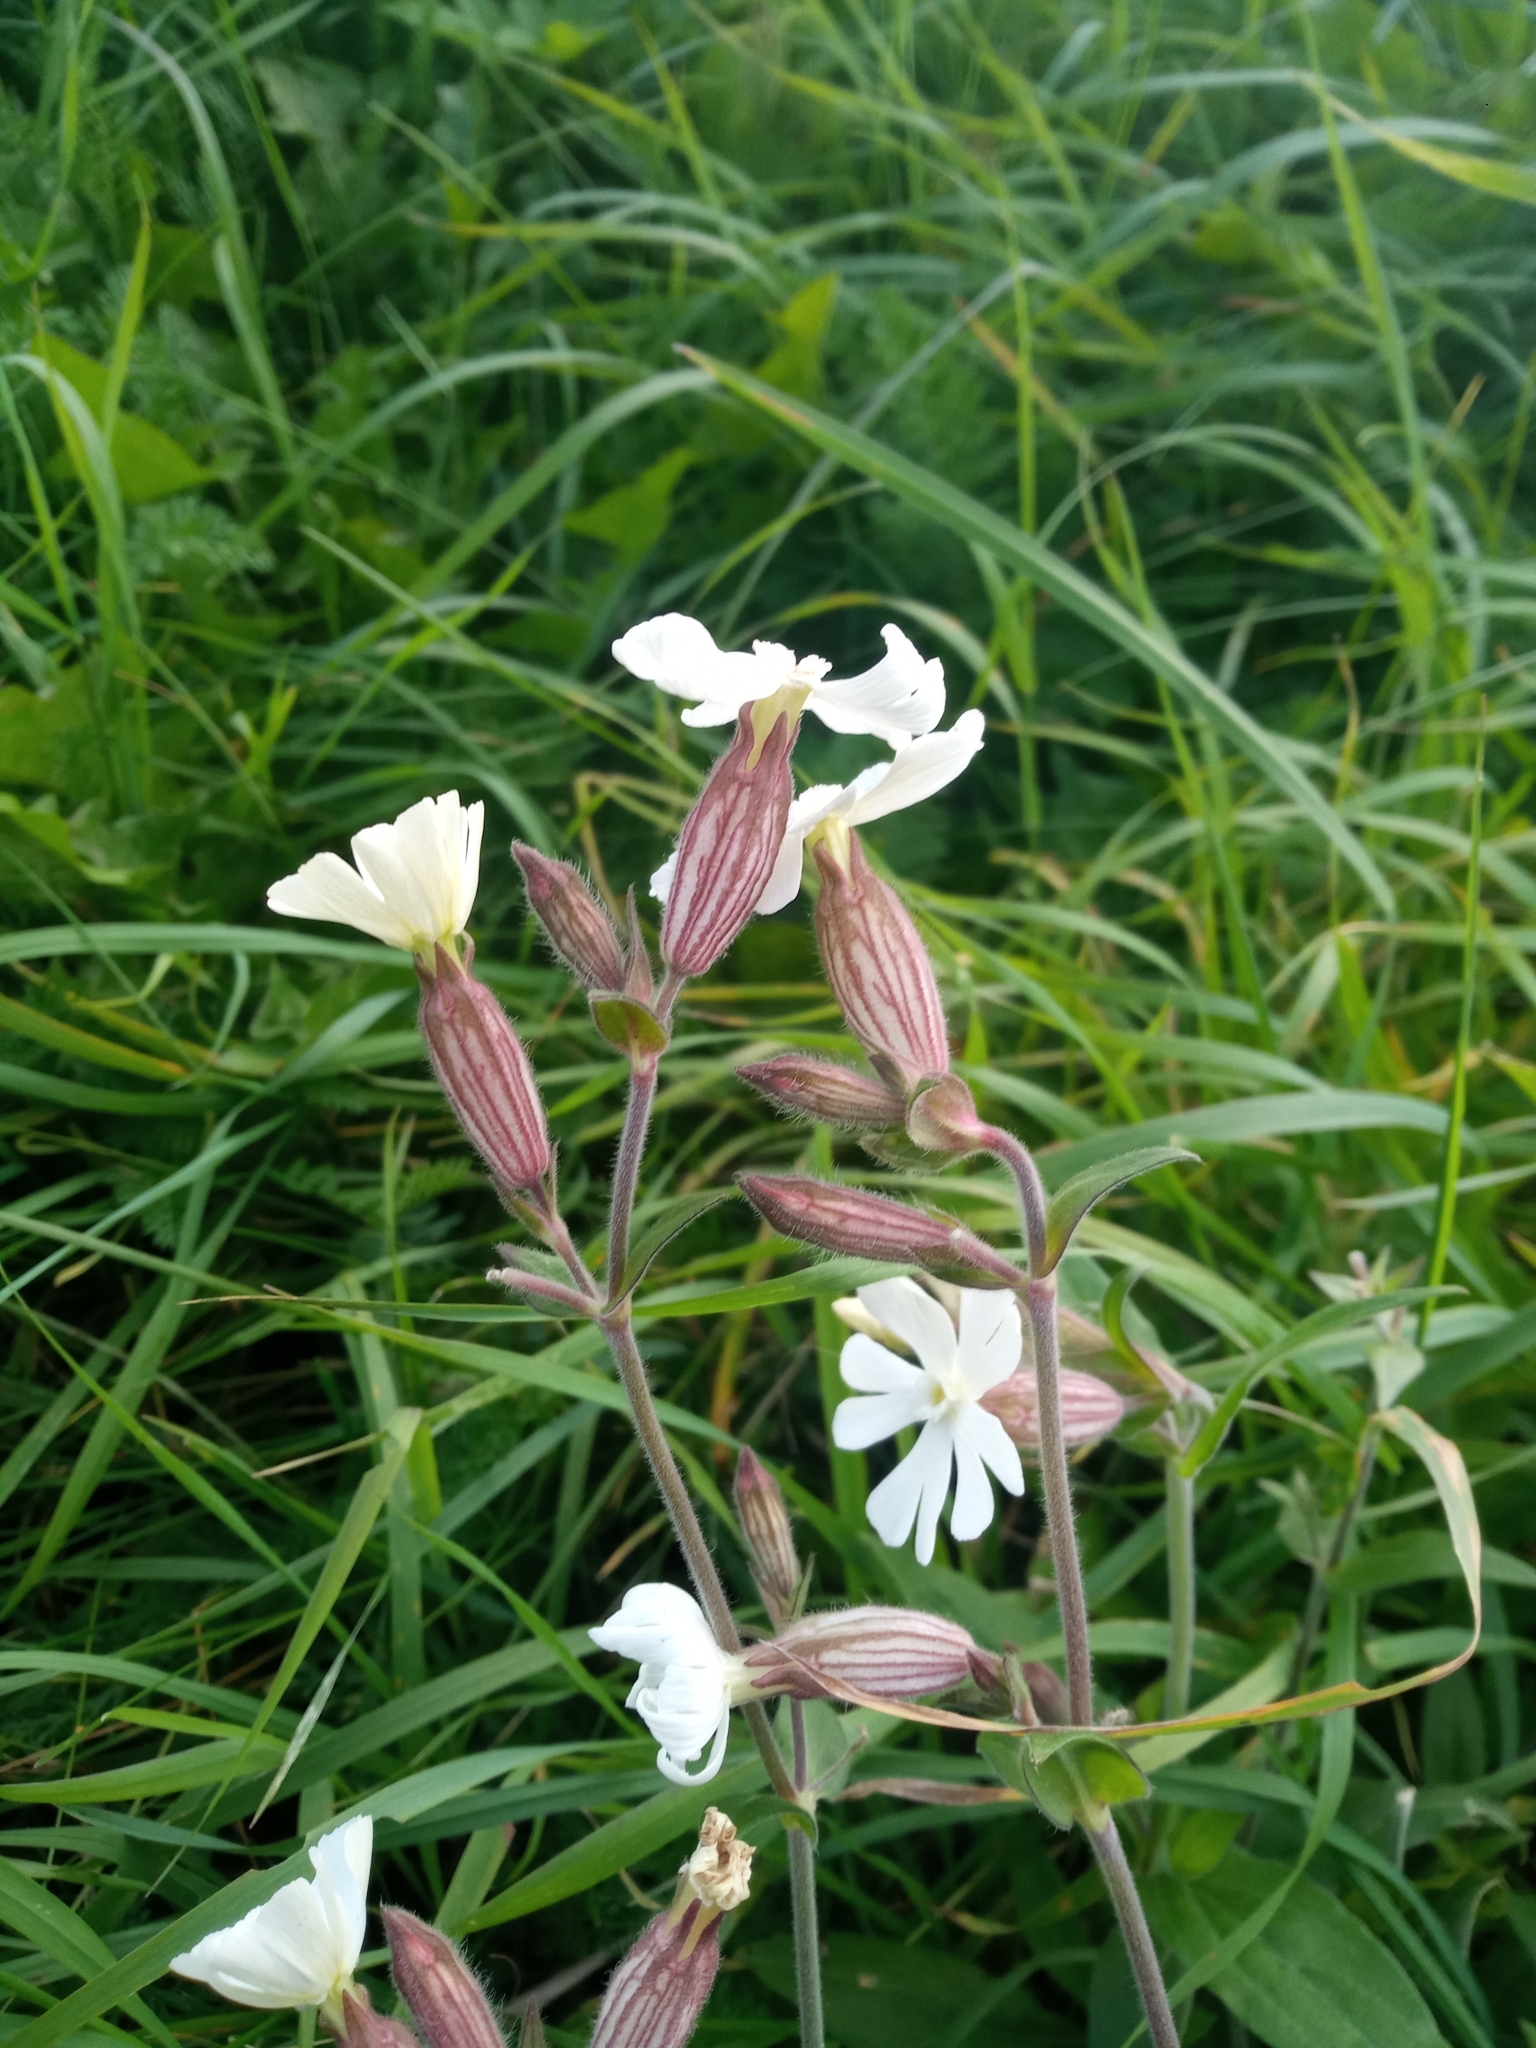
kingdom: Plantae
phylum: Tracheophyta
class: Magnoliopsida
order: Caryophyllales
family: Caryophyllaceae
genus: Silene
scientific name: Silene latifolia
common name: White campion
